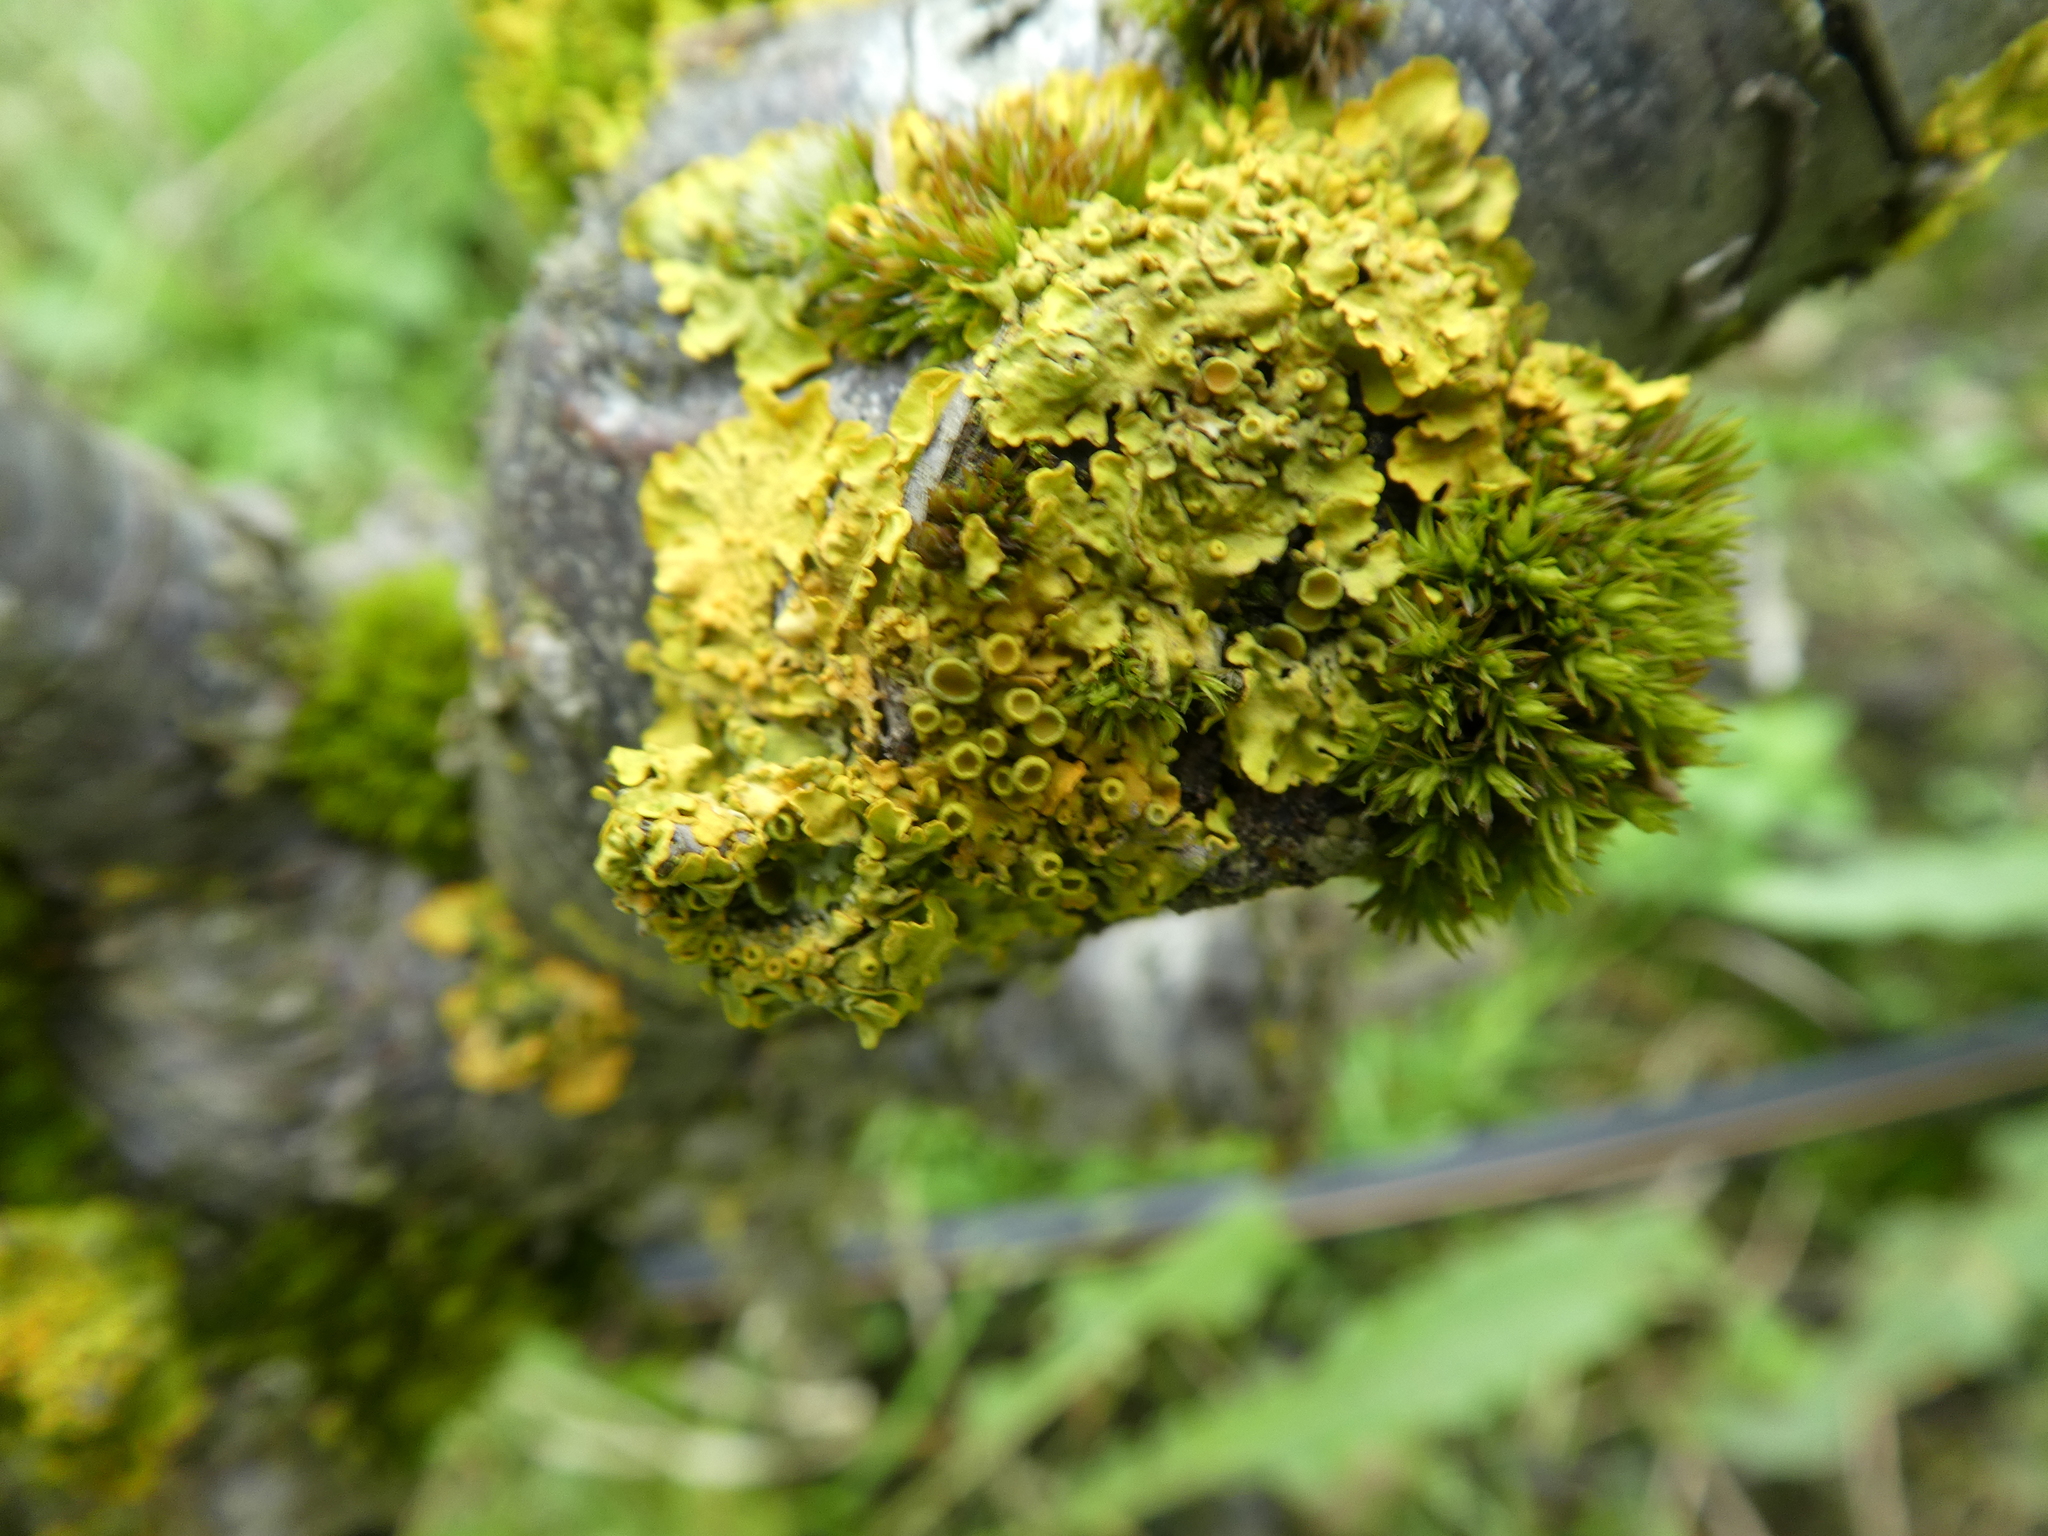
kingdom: Fungi
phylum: Ascomycota
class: Lecanoromycetes
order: Teloschistales
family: Teloschistaceae
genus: Xanthoria
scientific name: Xanthoria parietina
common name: Common orange lichen
